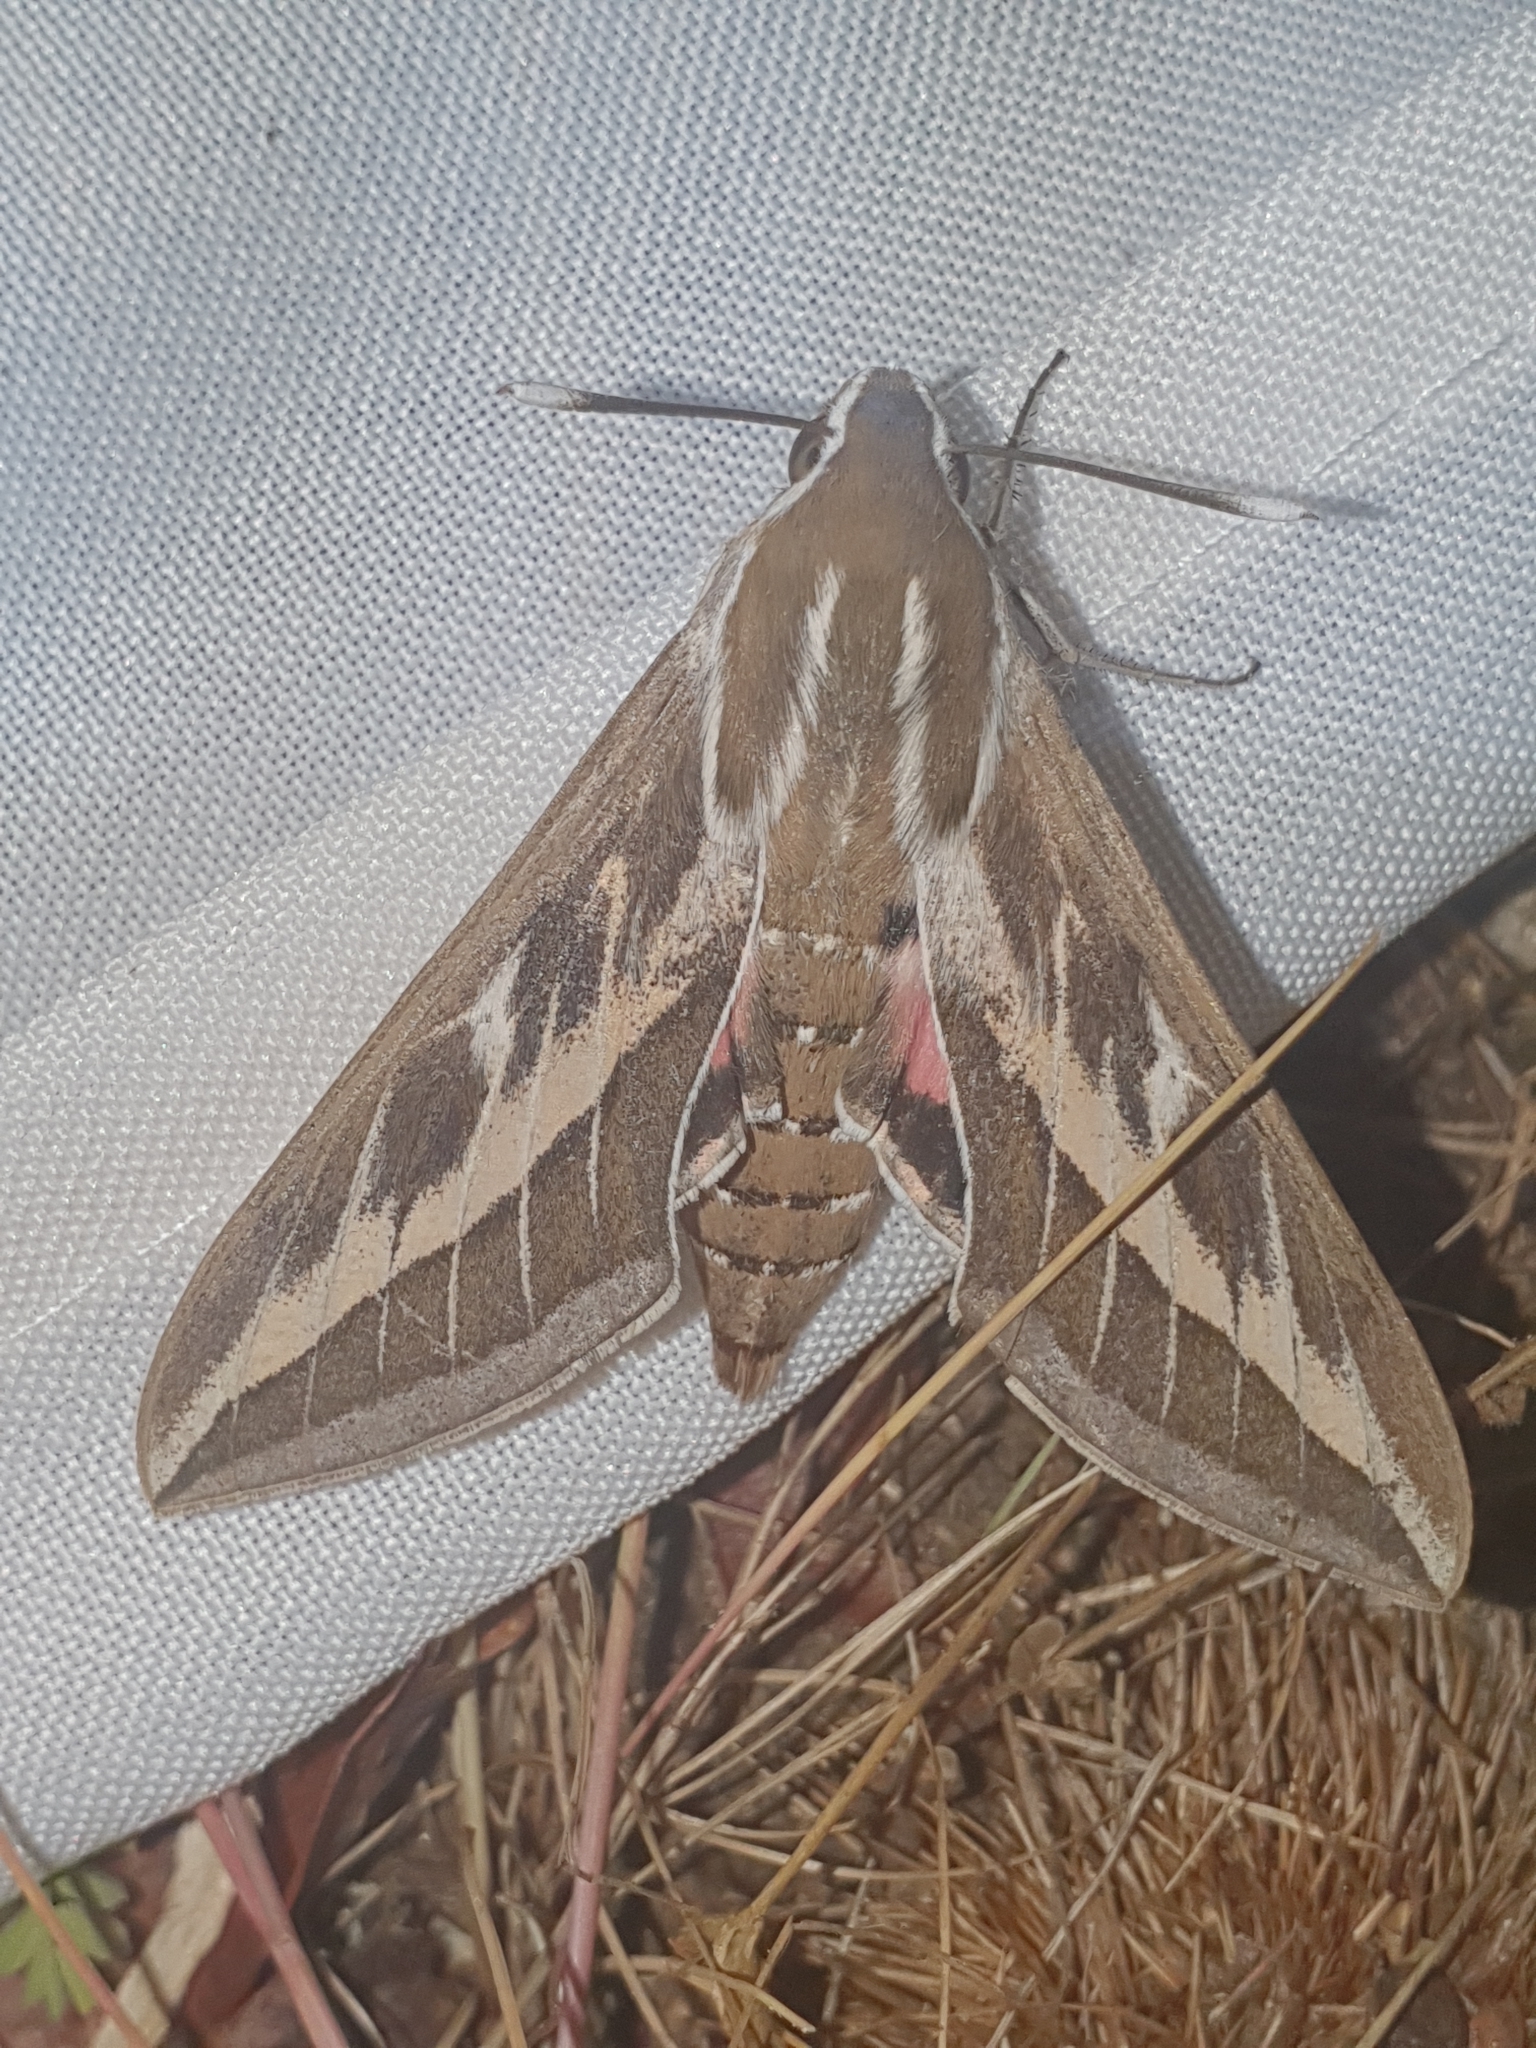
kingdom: Animalia
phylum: Arthropoda
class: Insecta
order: Lepidoptera
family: Sphingidae
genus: Hyles
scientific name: Hyles livornica
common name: Striped hawk-moth
